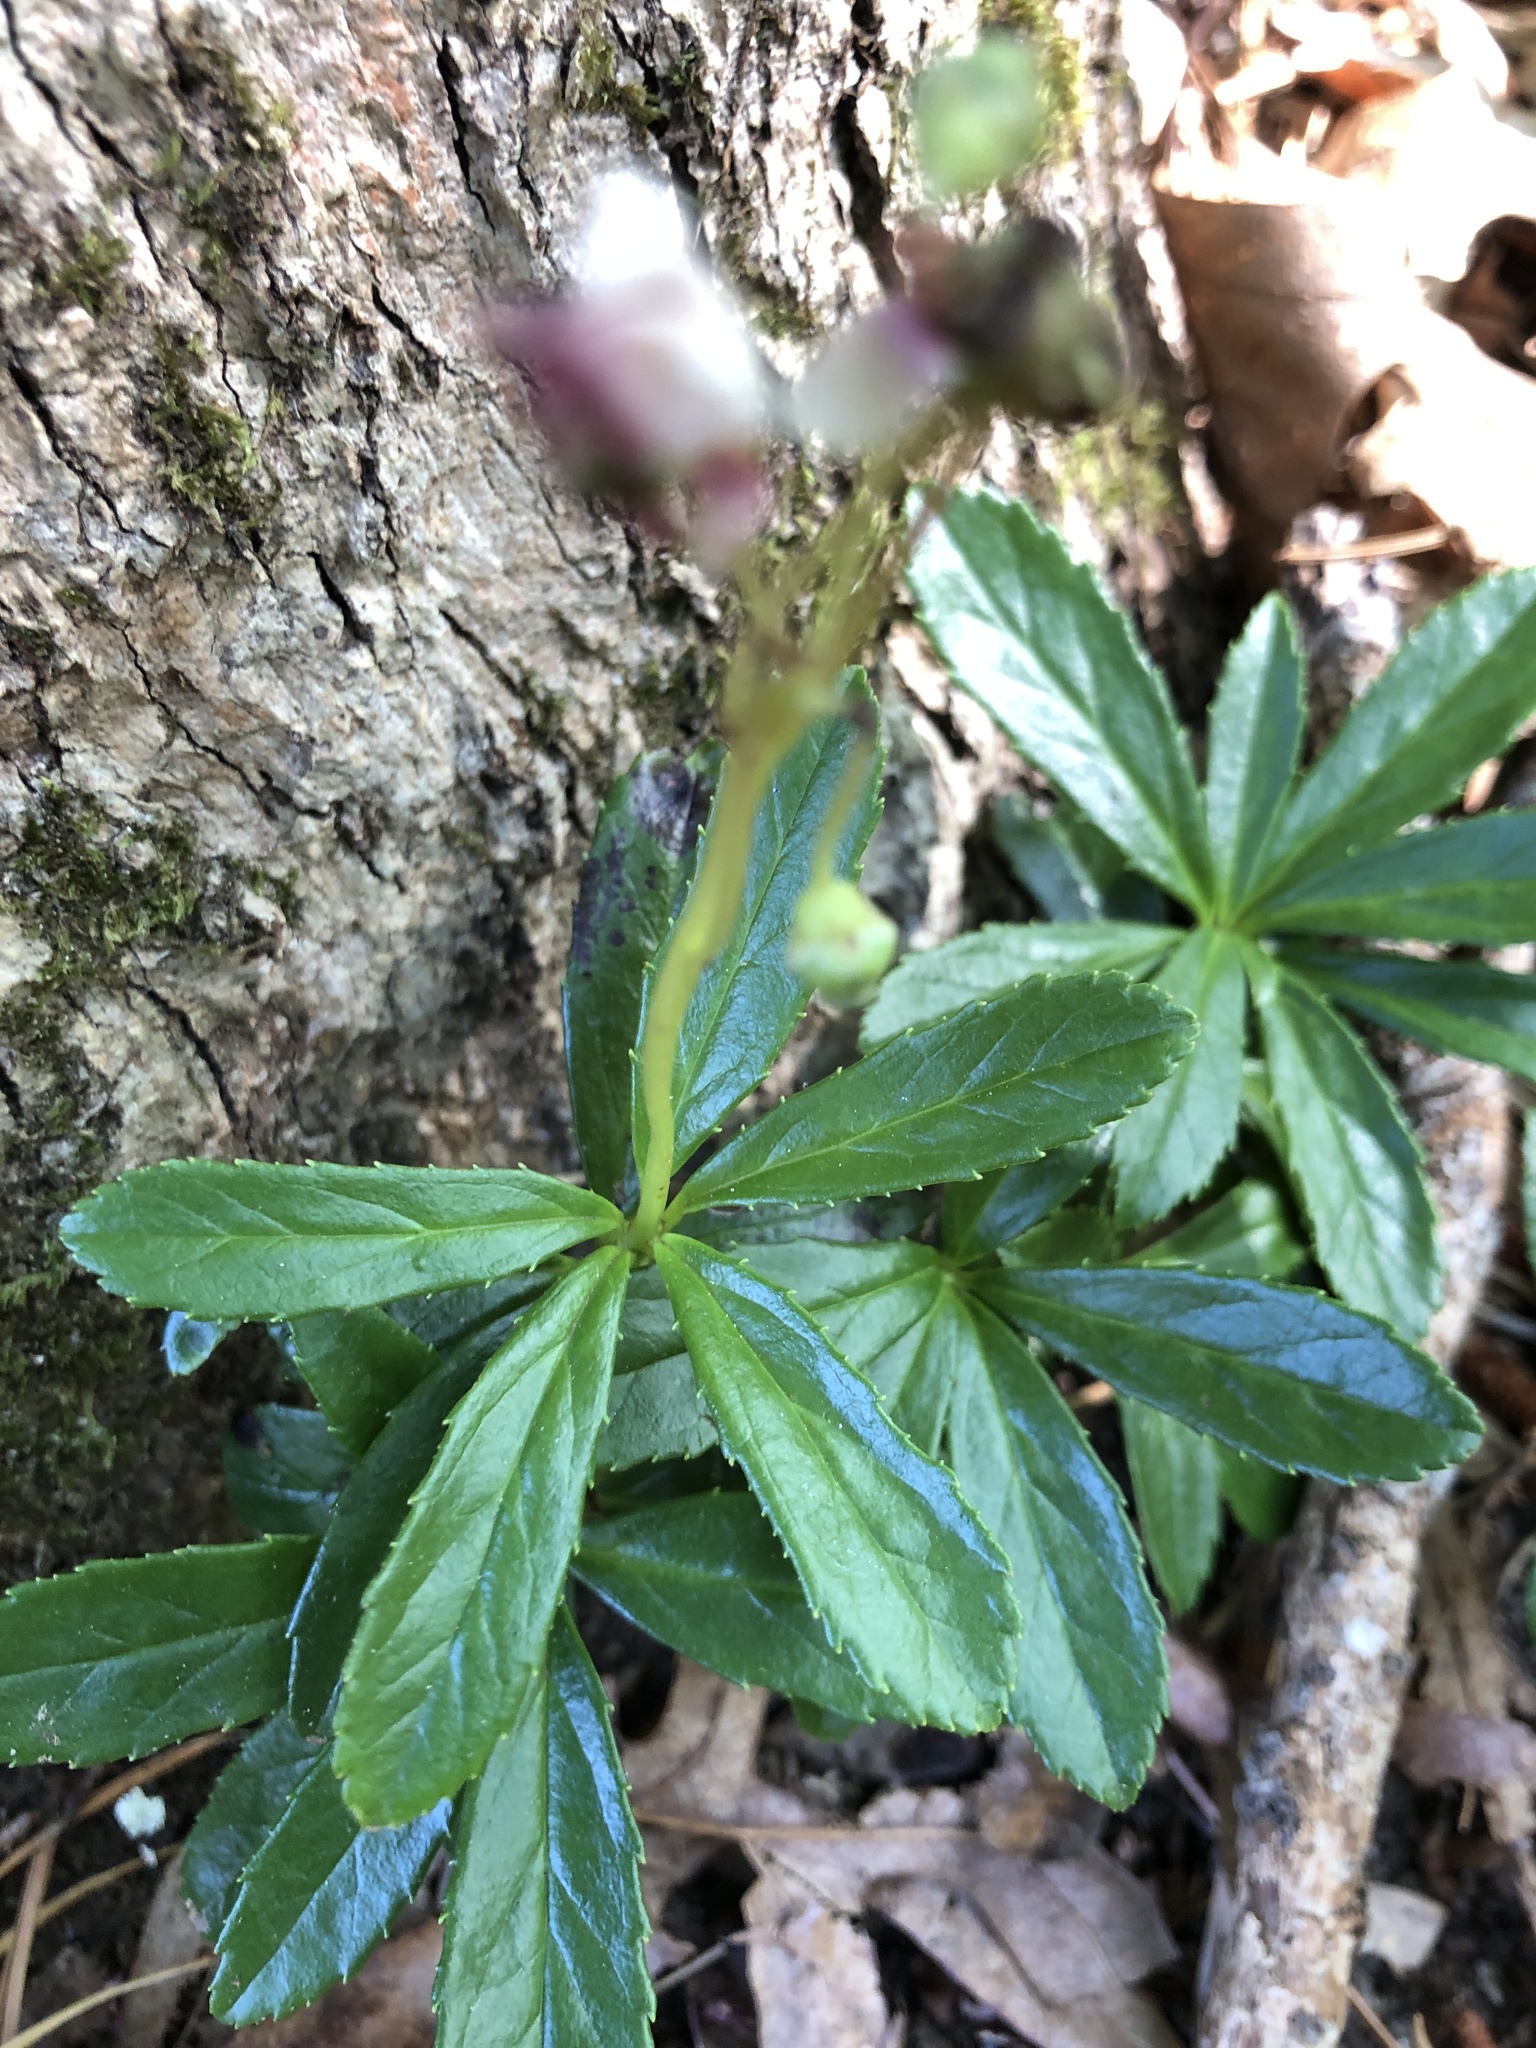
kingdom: Plantae
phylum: Tracheophyta
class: Magnoliopsida
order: Ericales
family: Ericaceae
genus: Chimaphila
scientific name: Chimaphila umbellata
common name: Pipsissewa
